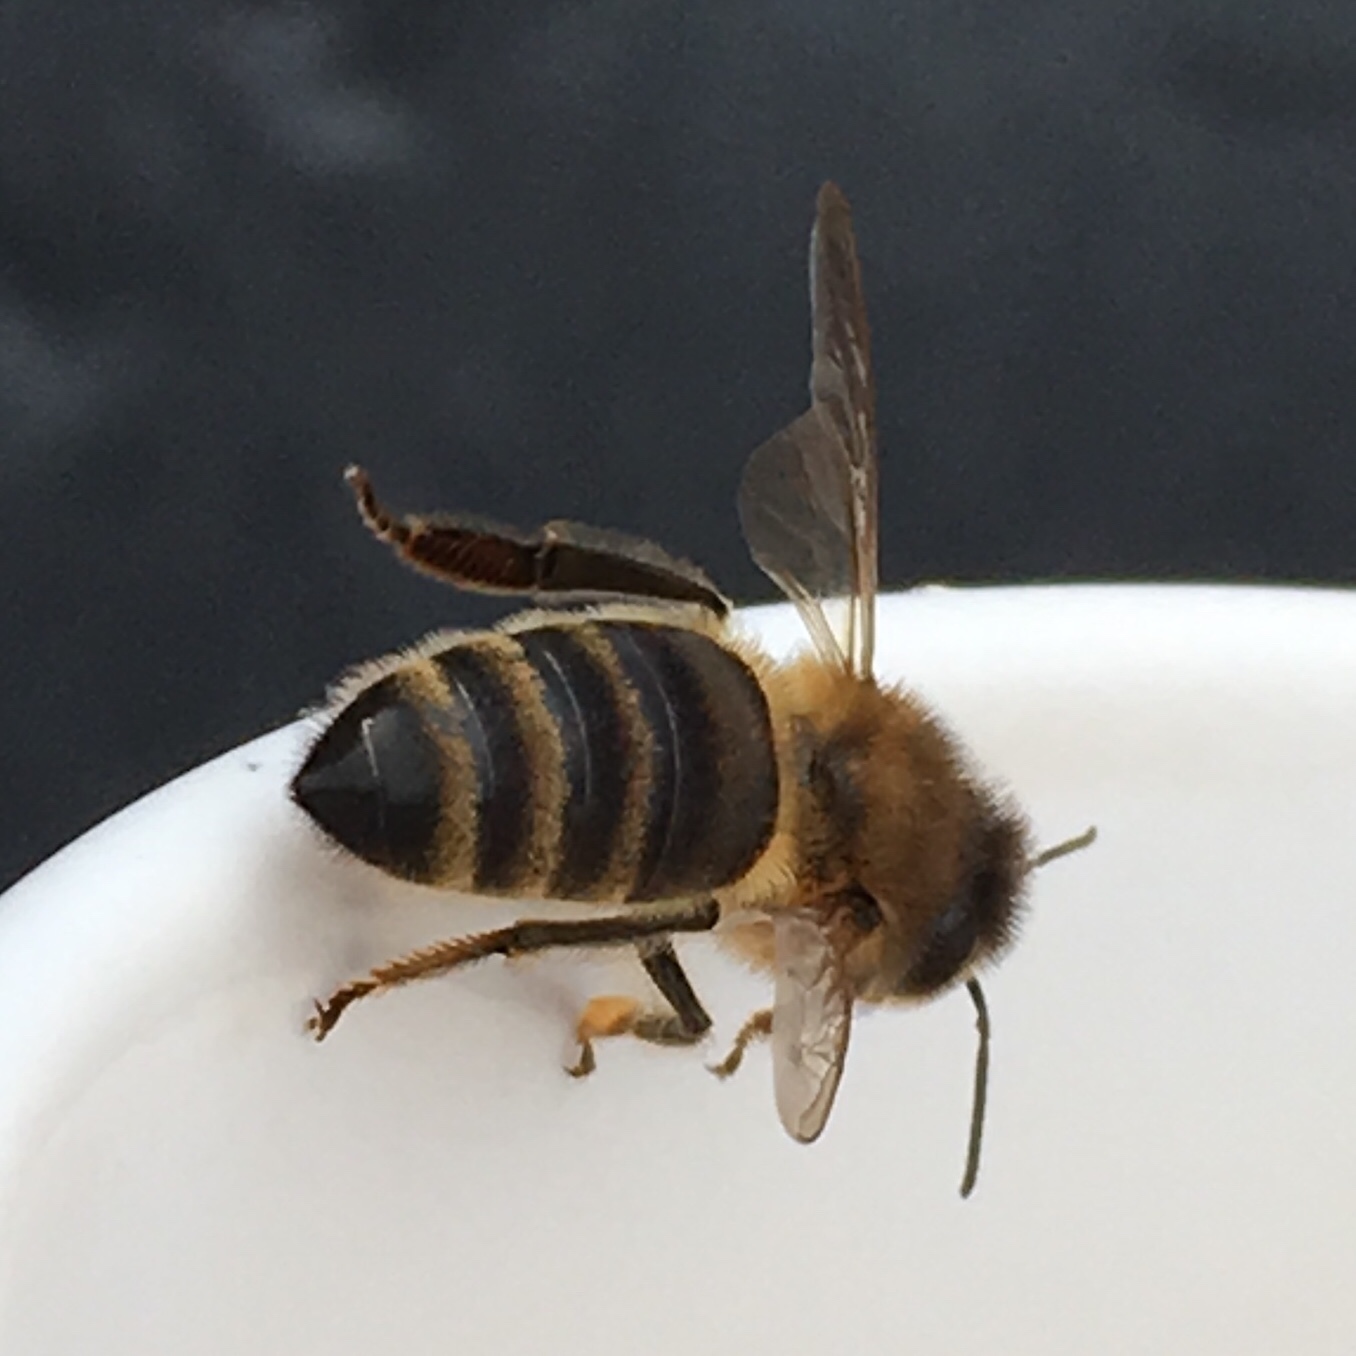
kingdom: Animalia
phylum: Arthropoda
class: Insecta
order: Hymenoptera
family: Apidae
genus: Apis
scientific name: Apis mellifera
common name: Honey bee
